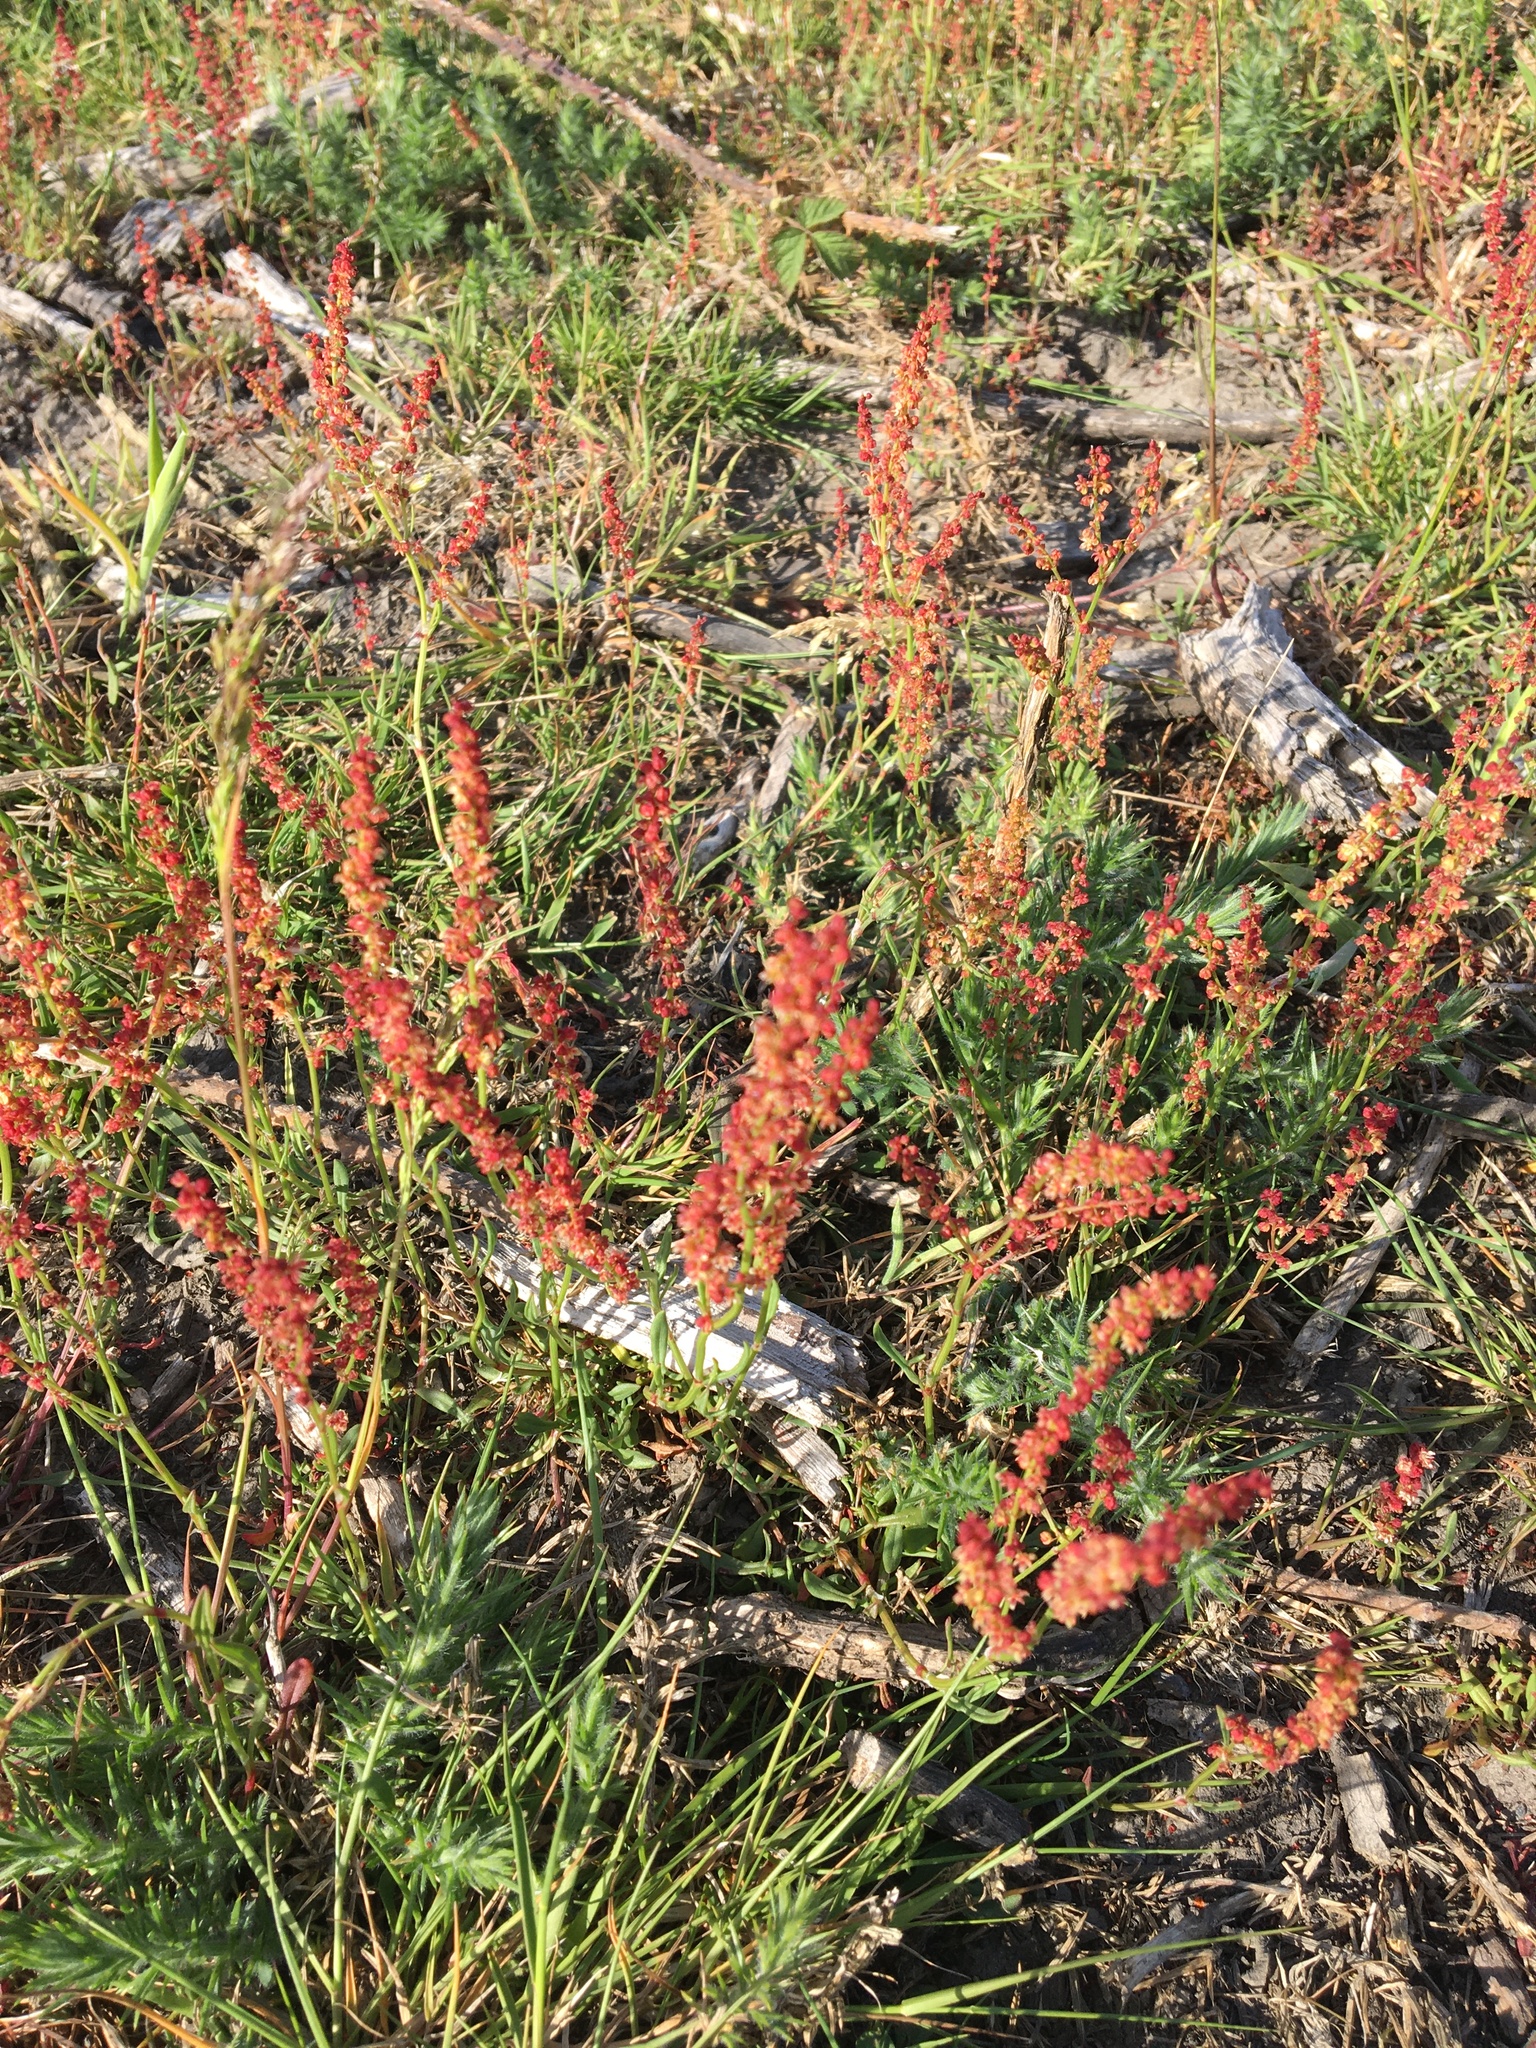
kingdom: Plantae
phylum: Tracheophyta
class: Magnoliopsida
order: Caryophyllales
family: Polygonaceae
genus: Rumex
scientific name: Rumex acetosella
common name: Common sheep sorrel
